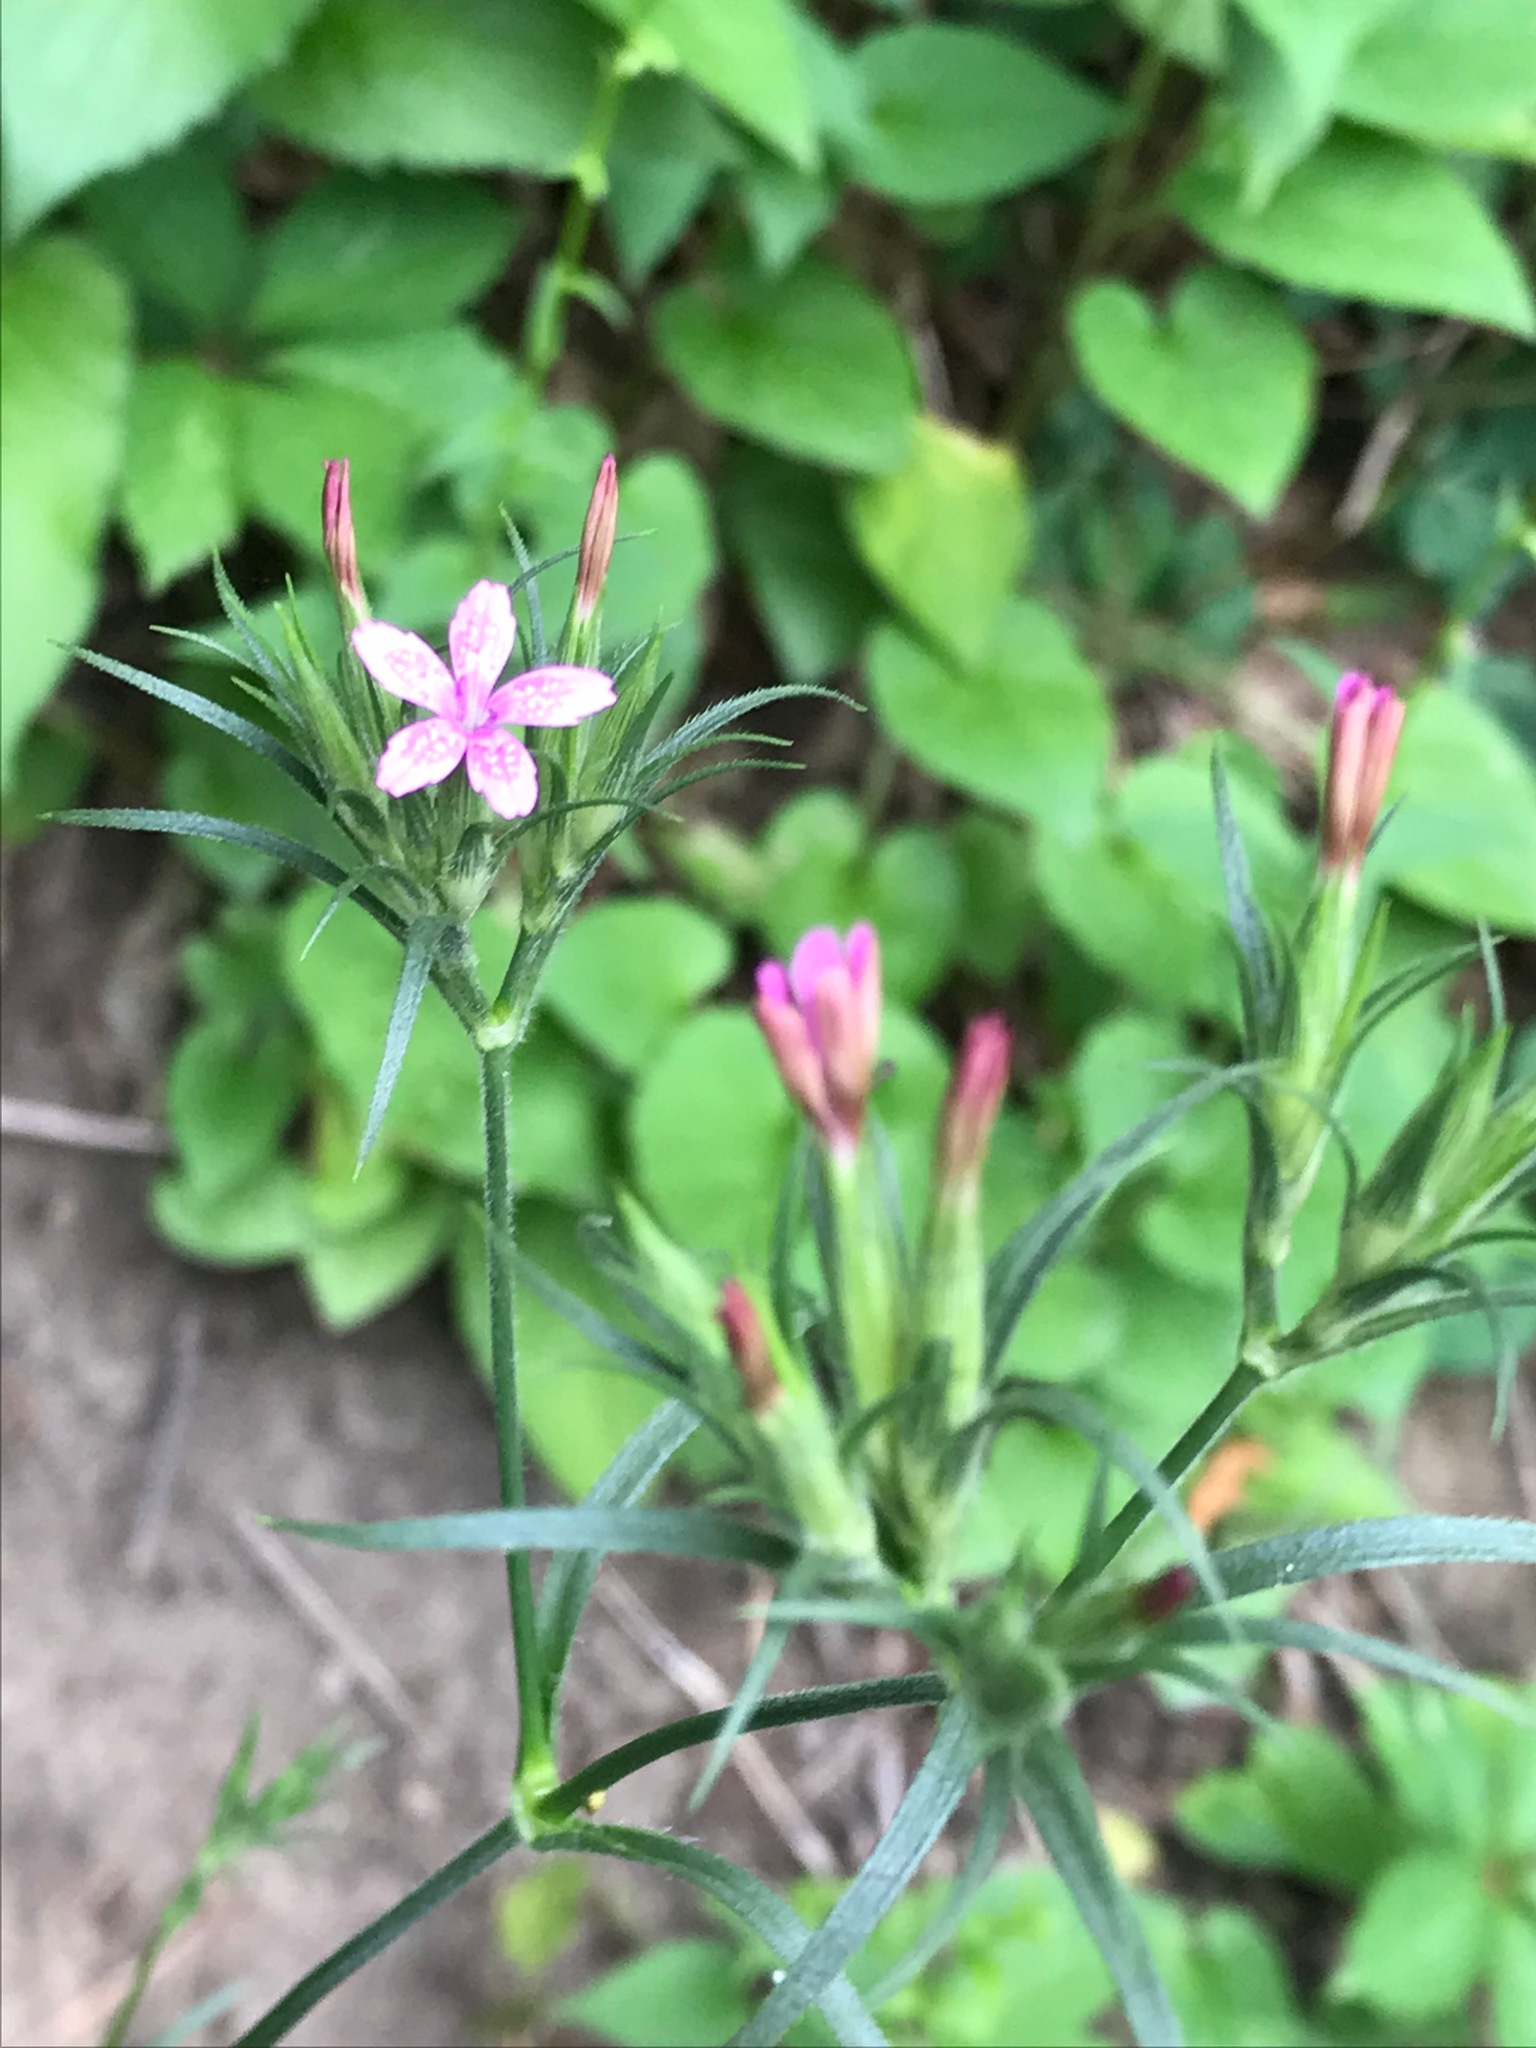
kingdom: Plantae
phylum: Tracheophyta
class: Magnoliopsida
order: Caryophyllales
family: Caryophyllaceae
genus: Dianthus
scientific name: Dianthus armeria
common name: Deptford pink
